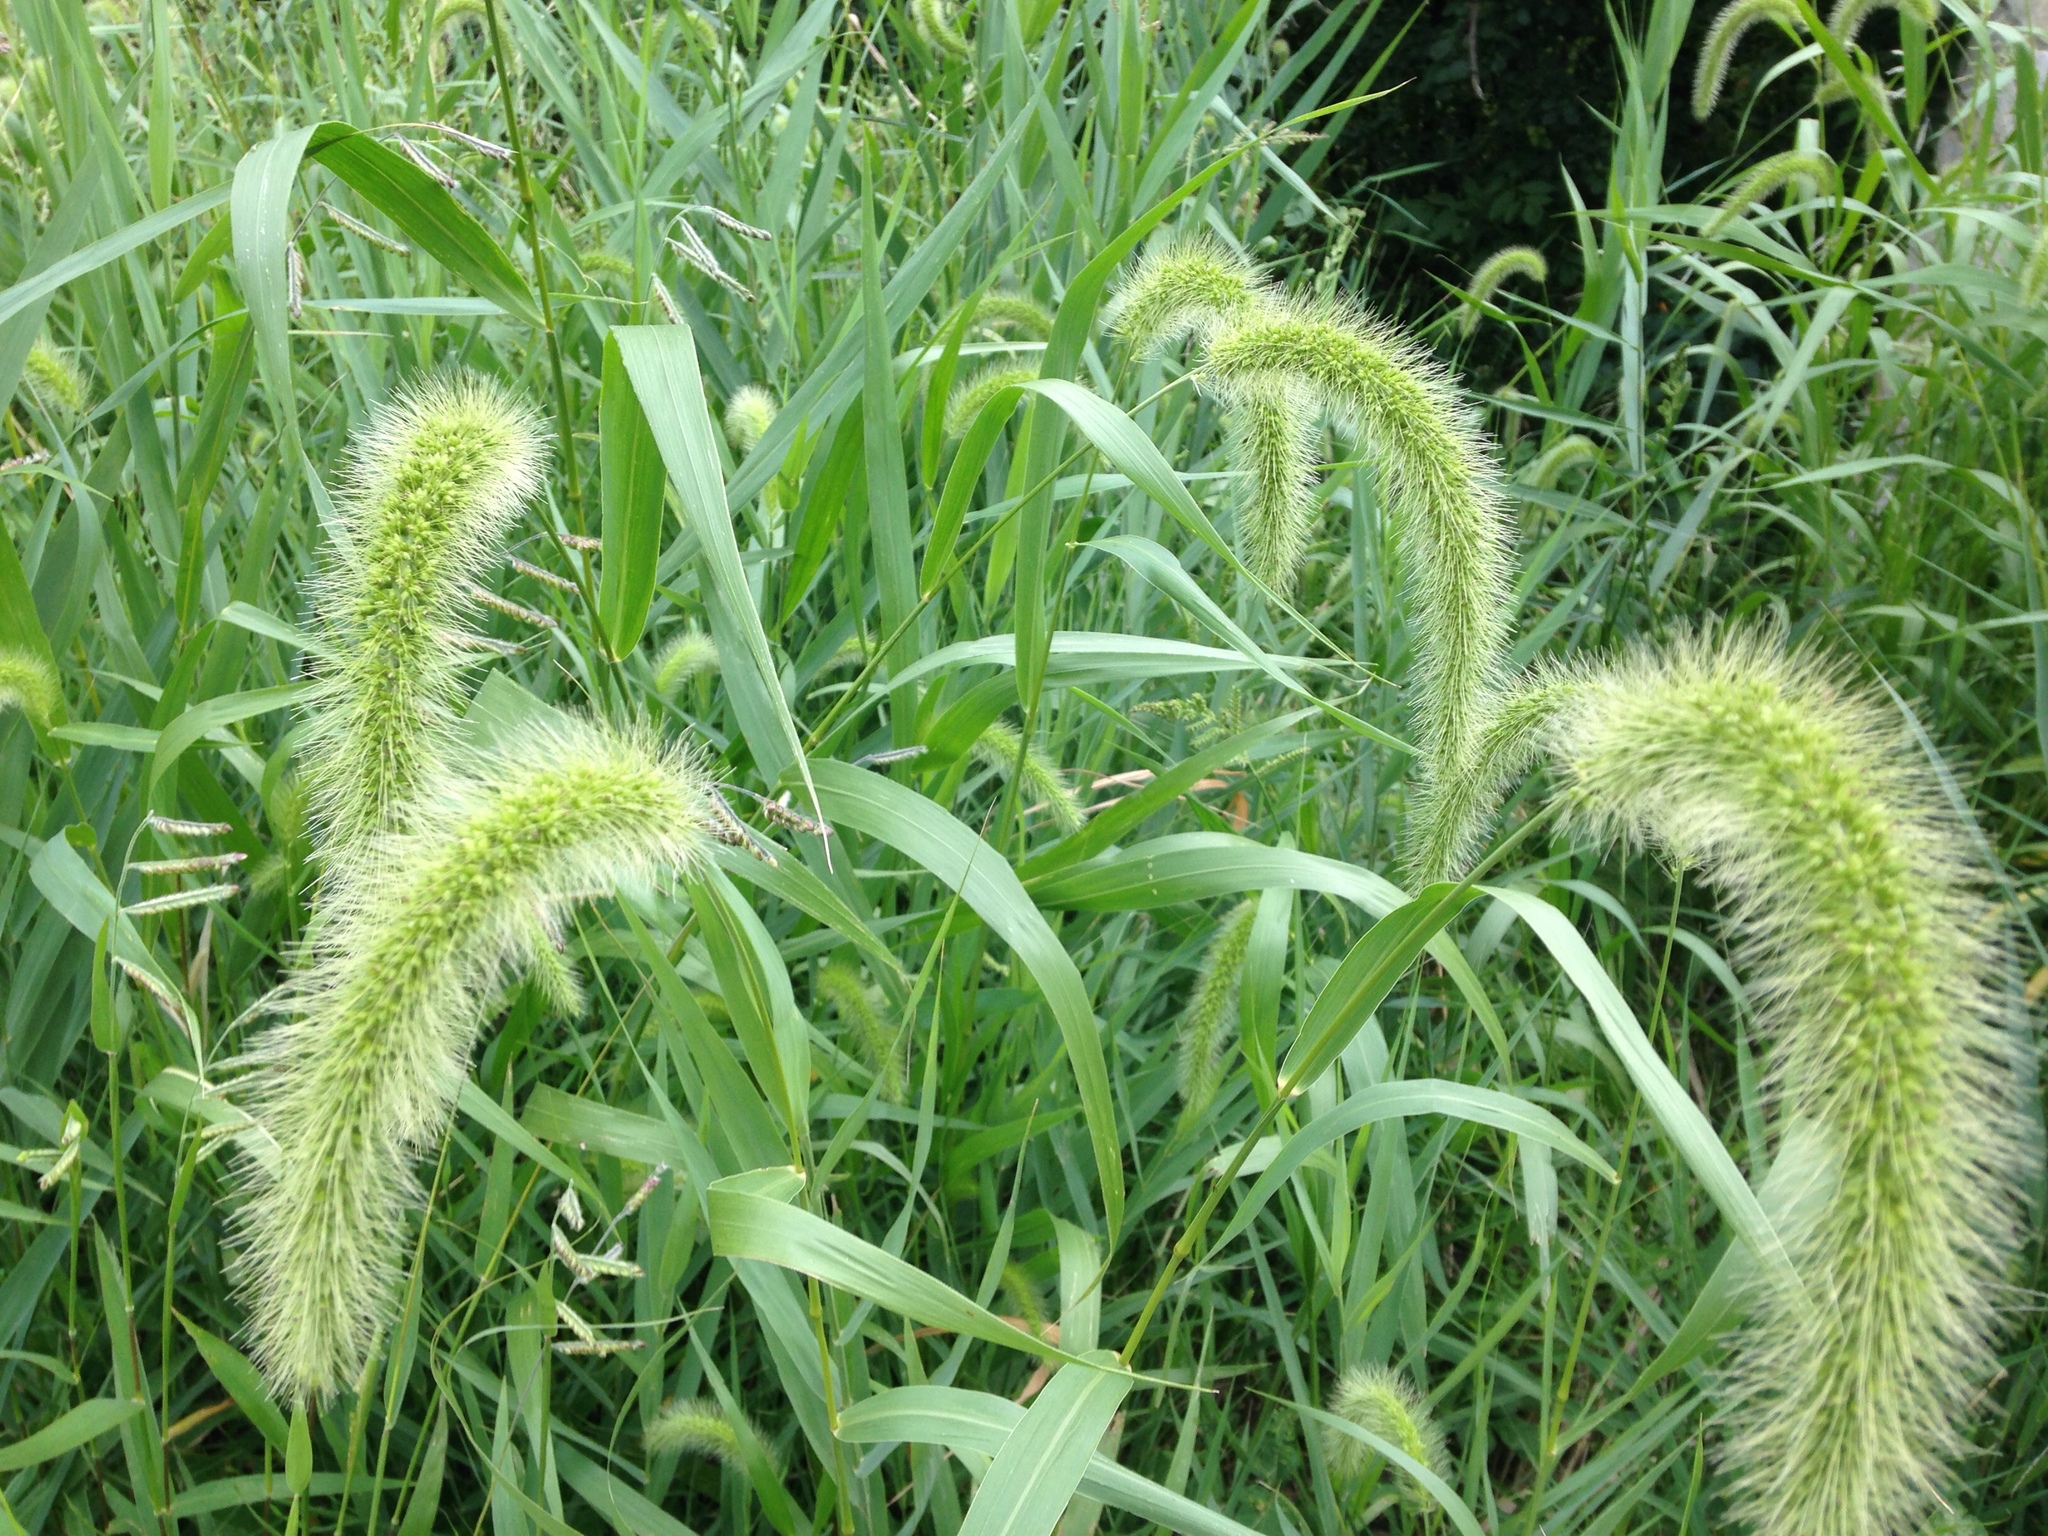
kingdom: Plantae
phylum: Tracheophyta
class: Liliopsida
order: Poales
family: Poaceae
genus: Setaria
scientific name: Setaria faberi
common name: Nodding bristle-grass
